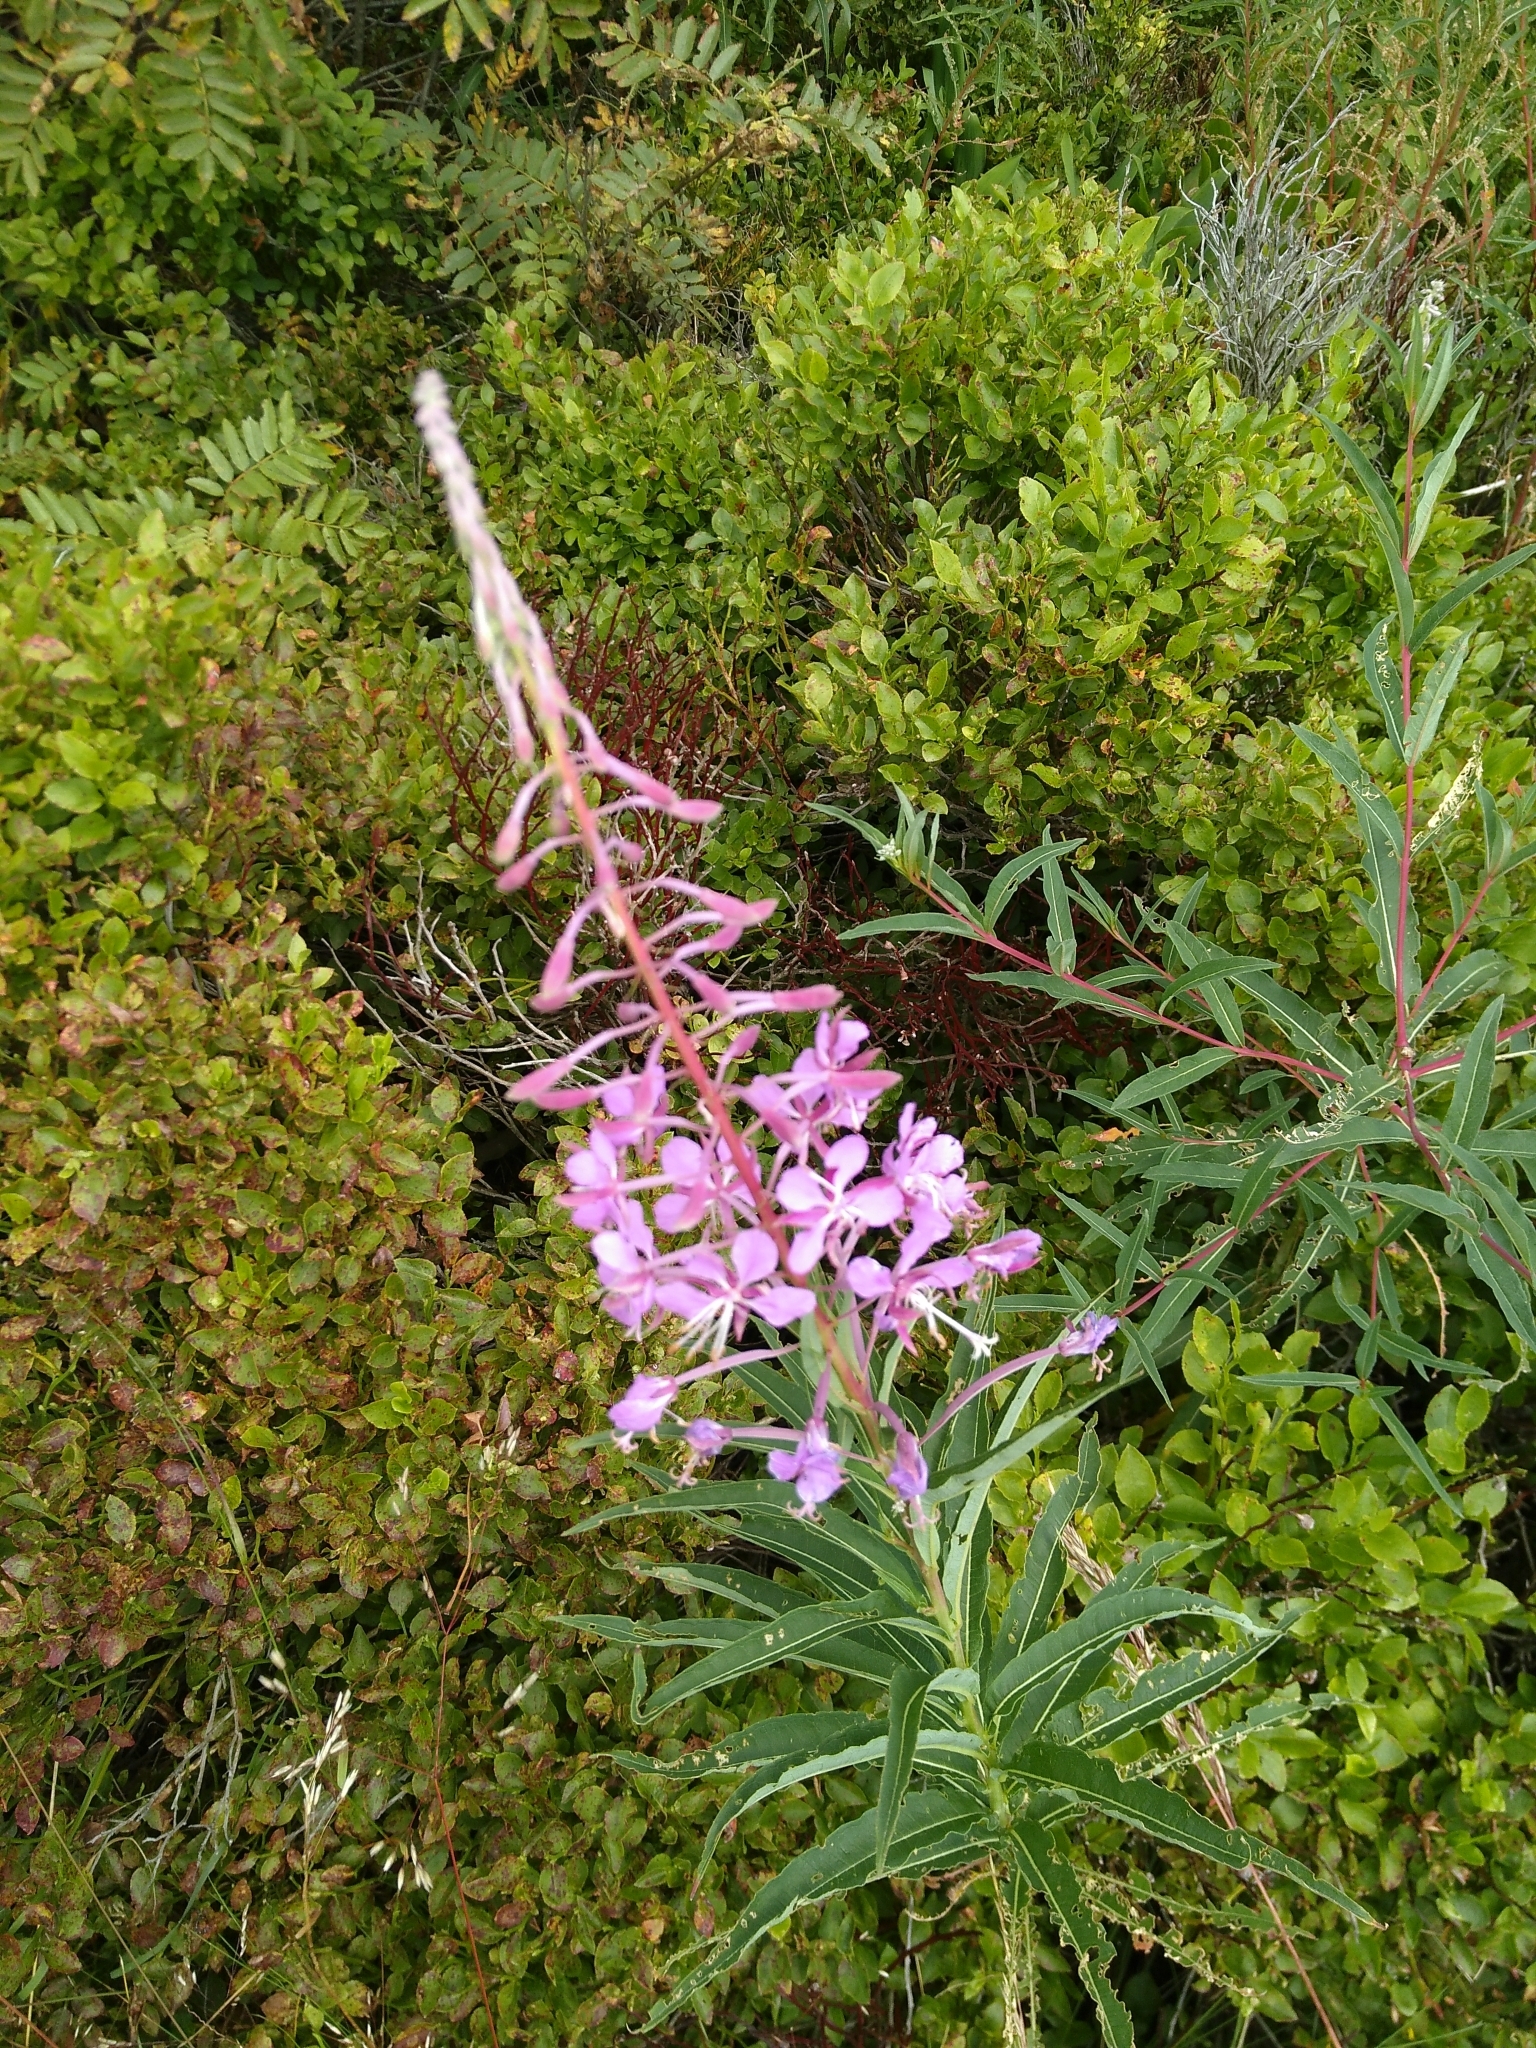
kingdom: Plantae
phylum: Tracheophyta
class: Magnoliopsida
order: Myrtales
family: Onagraceae
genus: Chamaenerion
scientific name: Chamaenerion angustifolium
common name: Fireweed
